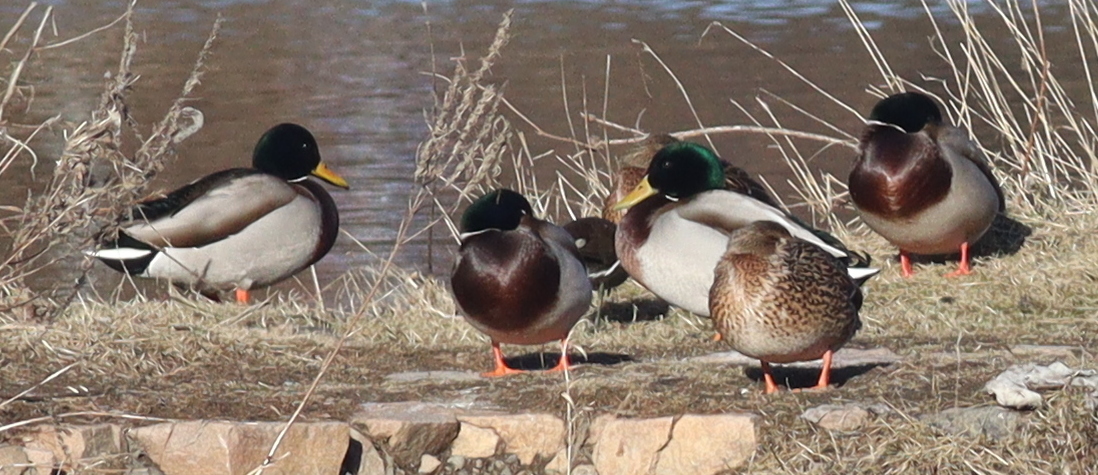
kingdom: Animalia
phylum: Chordata
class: Aves
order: Anseriformes
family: Anatidae
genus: Anas
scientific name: Anas platyrhynchos
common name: Mallard
